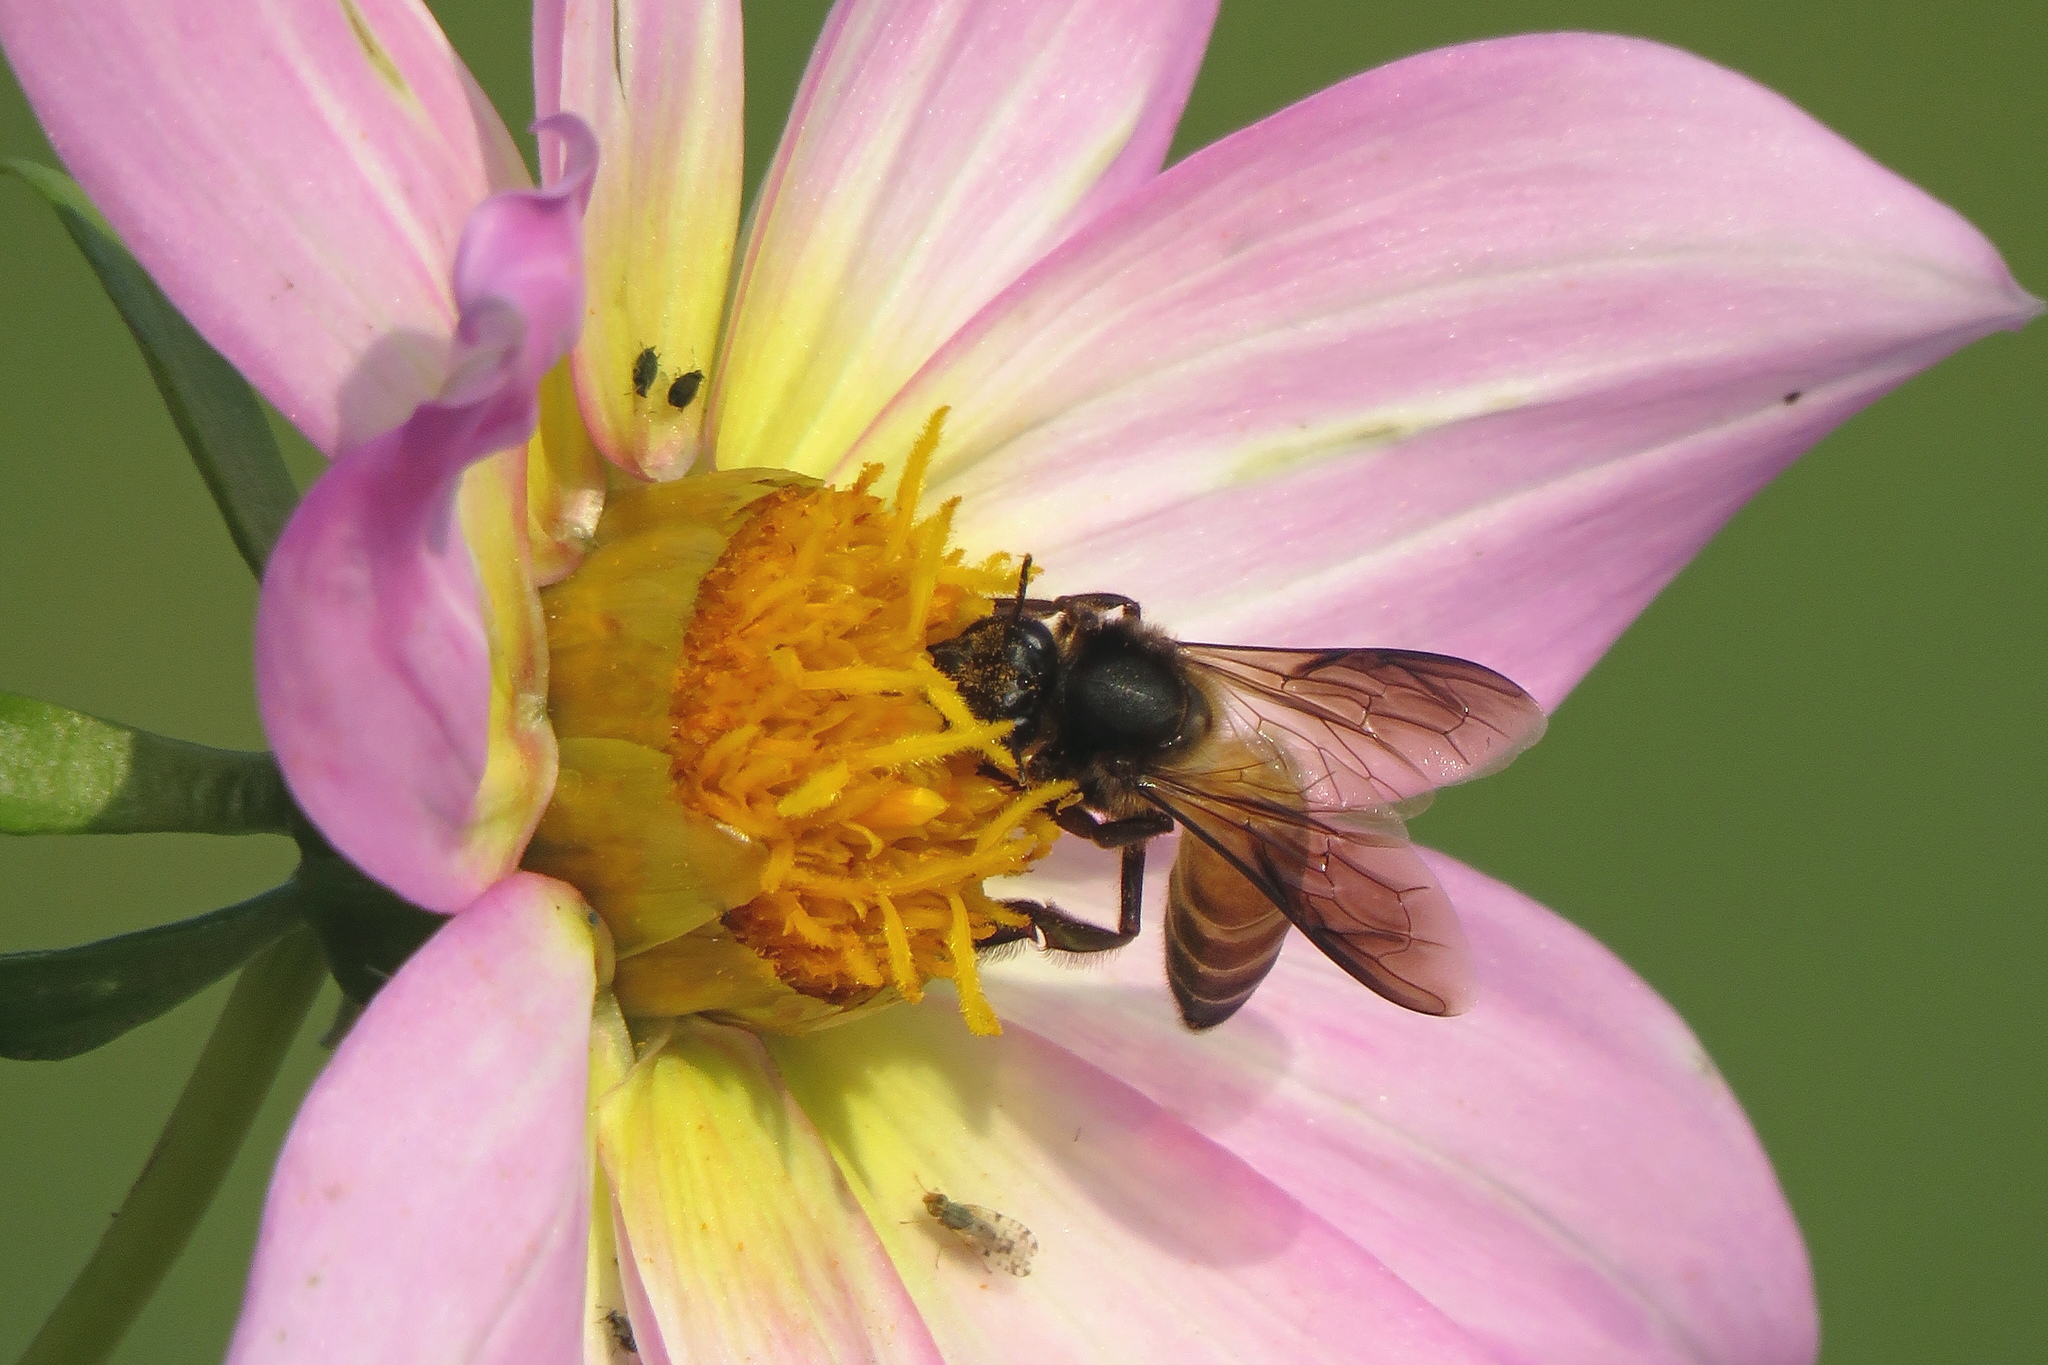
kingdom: Animalia
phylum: Arthropoda
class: Insecta
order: Hymenoptera
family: Apidae
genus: Apis
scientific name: Apis dorsata
